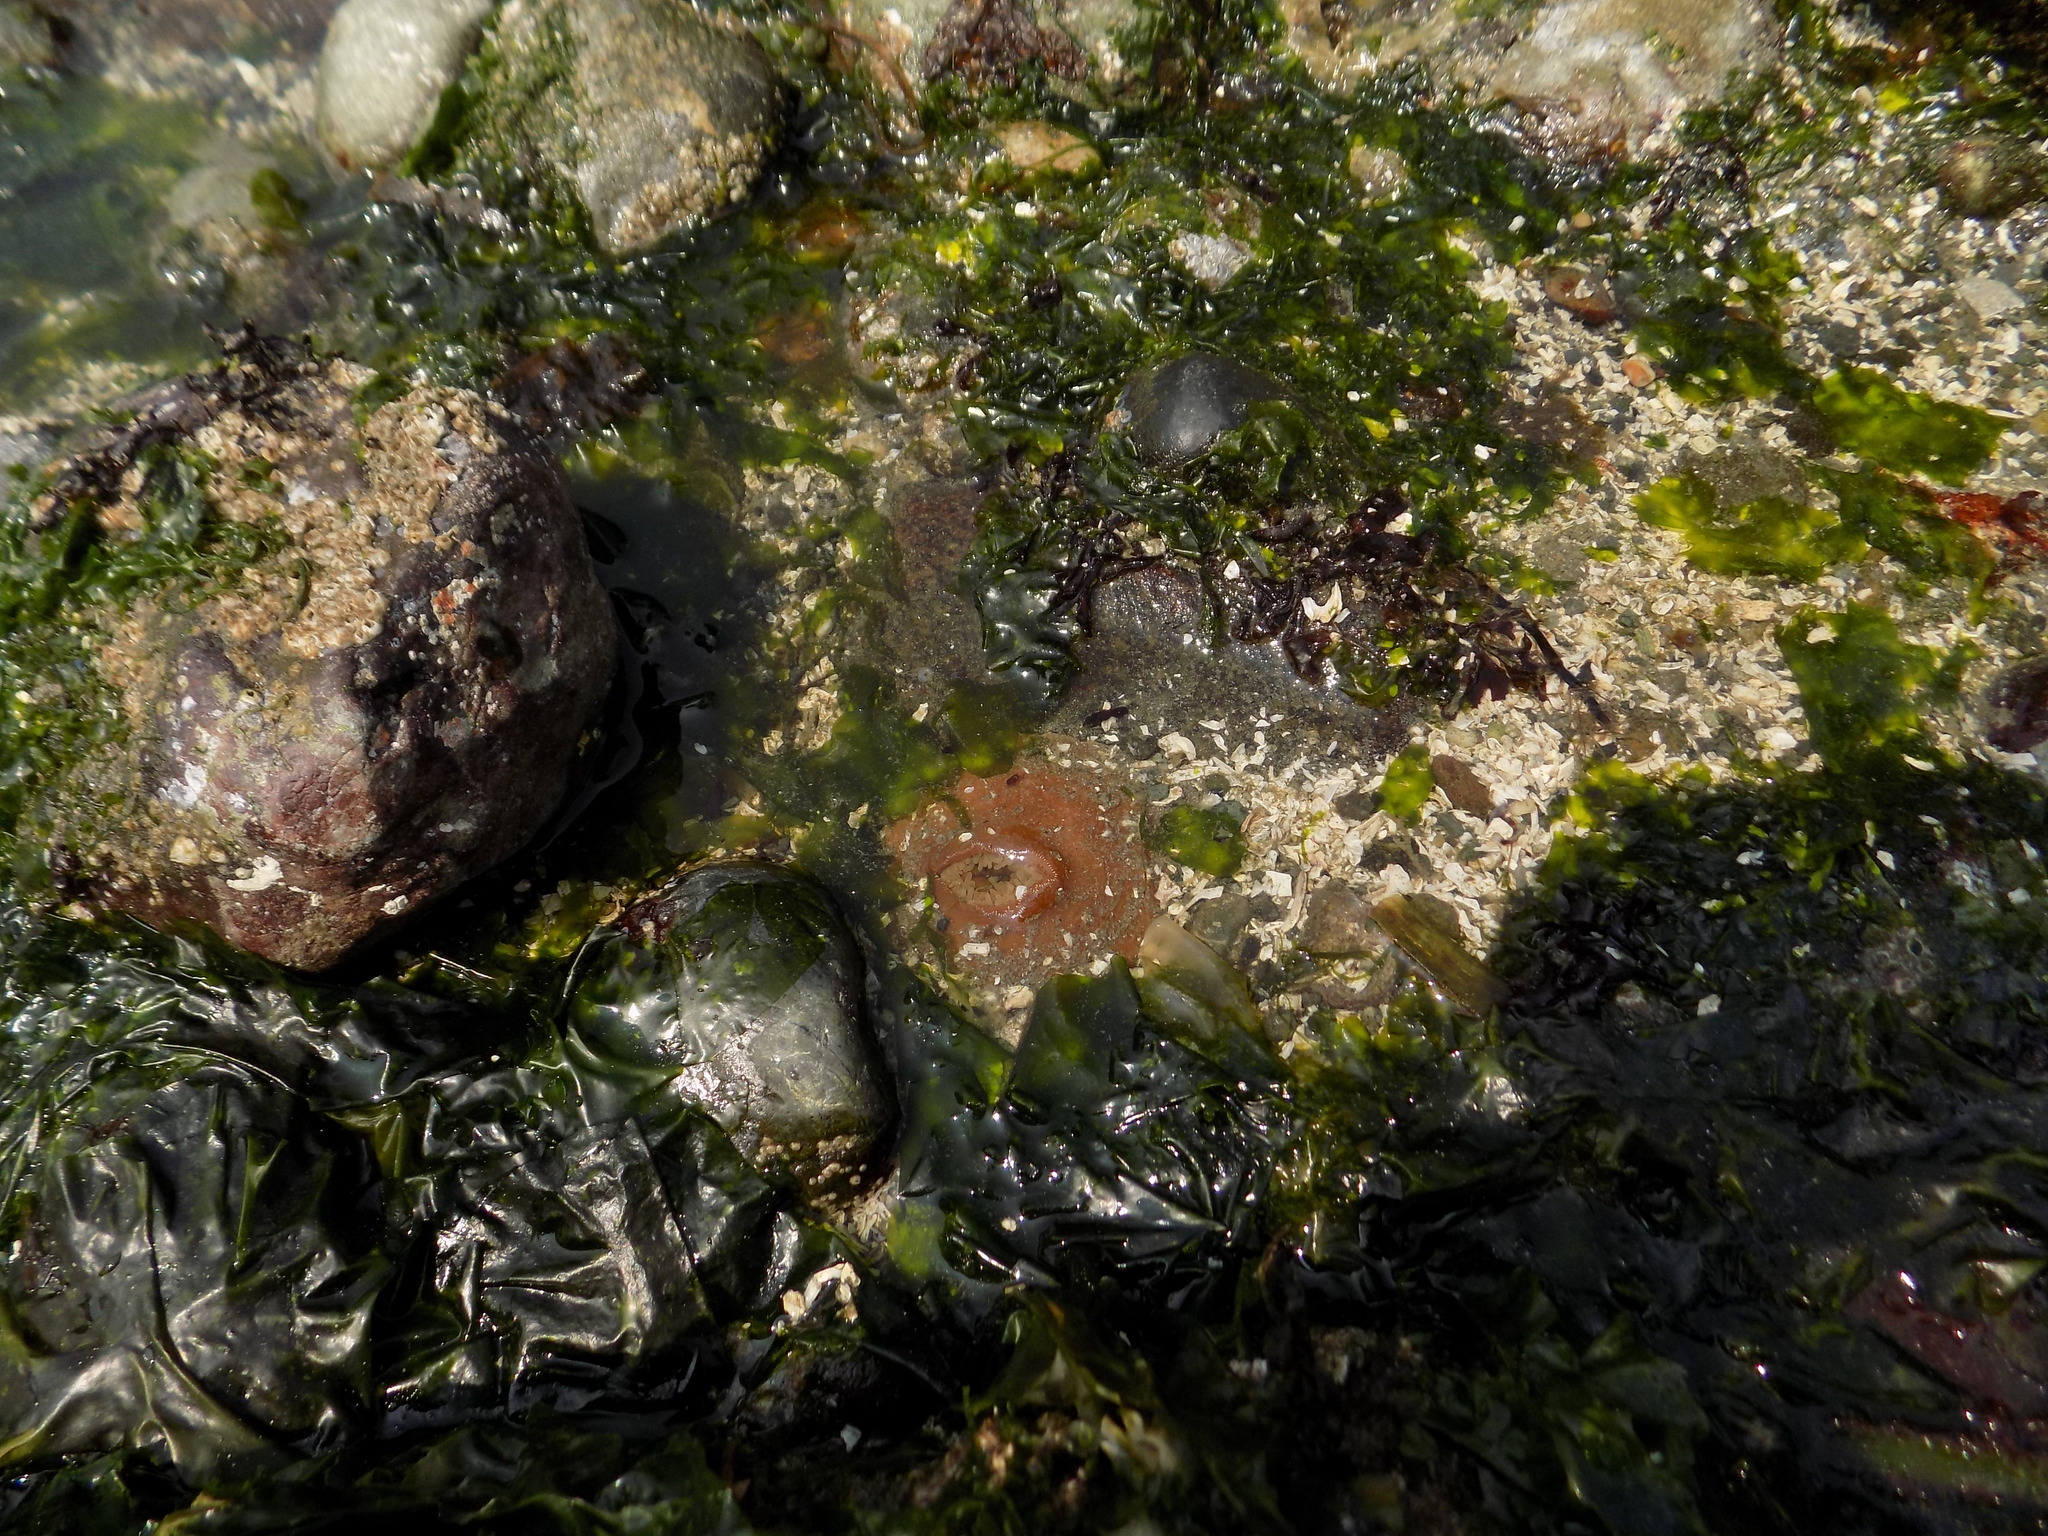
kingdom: Animalia
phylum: Cnidaria
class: Anthozoa
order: Actiniaria
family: Actiniidae
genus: Urticina
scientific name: Urticina grebelnyi
